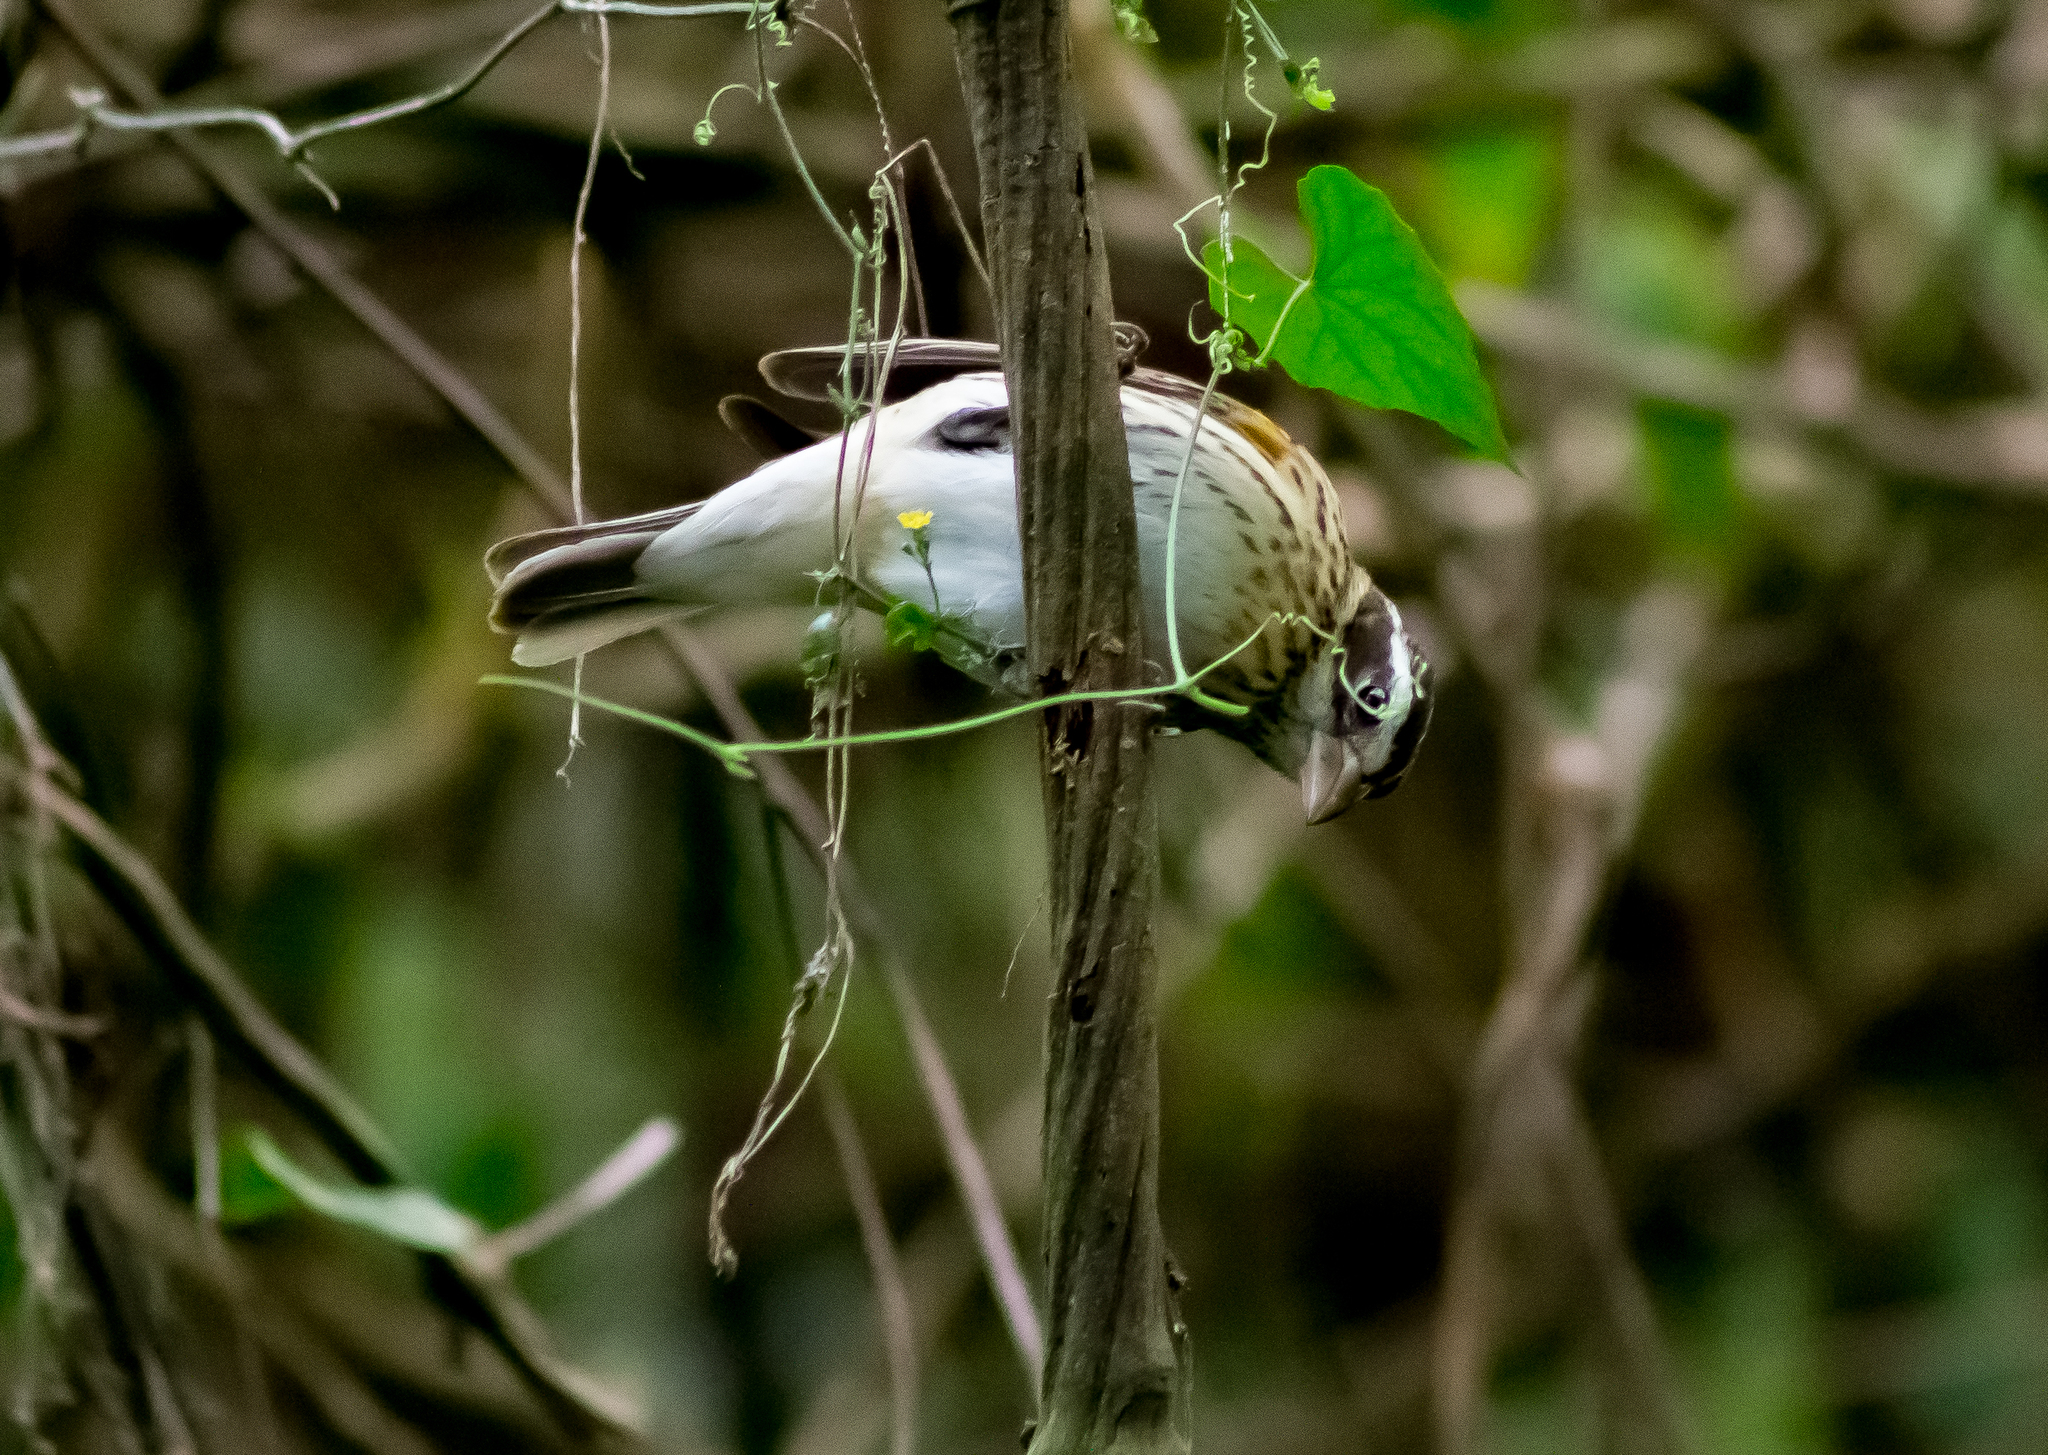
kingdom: Animalia
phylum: Chordata
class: Aves
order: Passeriformes
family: Cardinalidae
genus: Pheucticus
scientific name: Pheucticus ludovicianus
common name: Rose-breasted grosbeak
